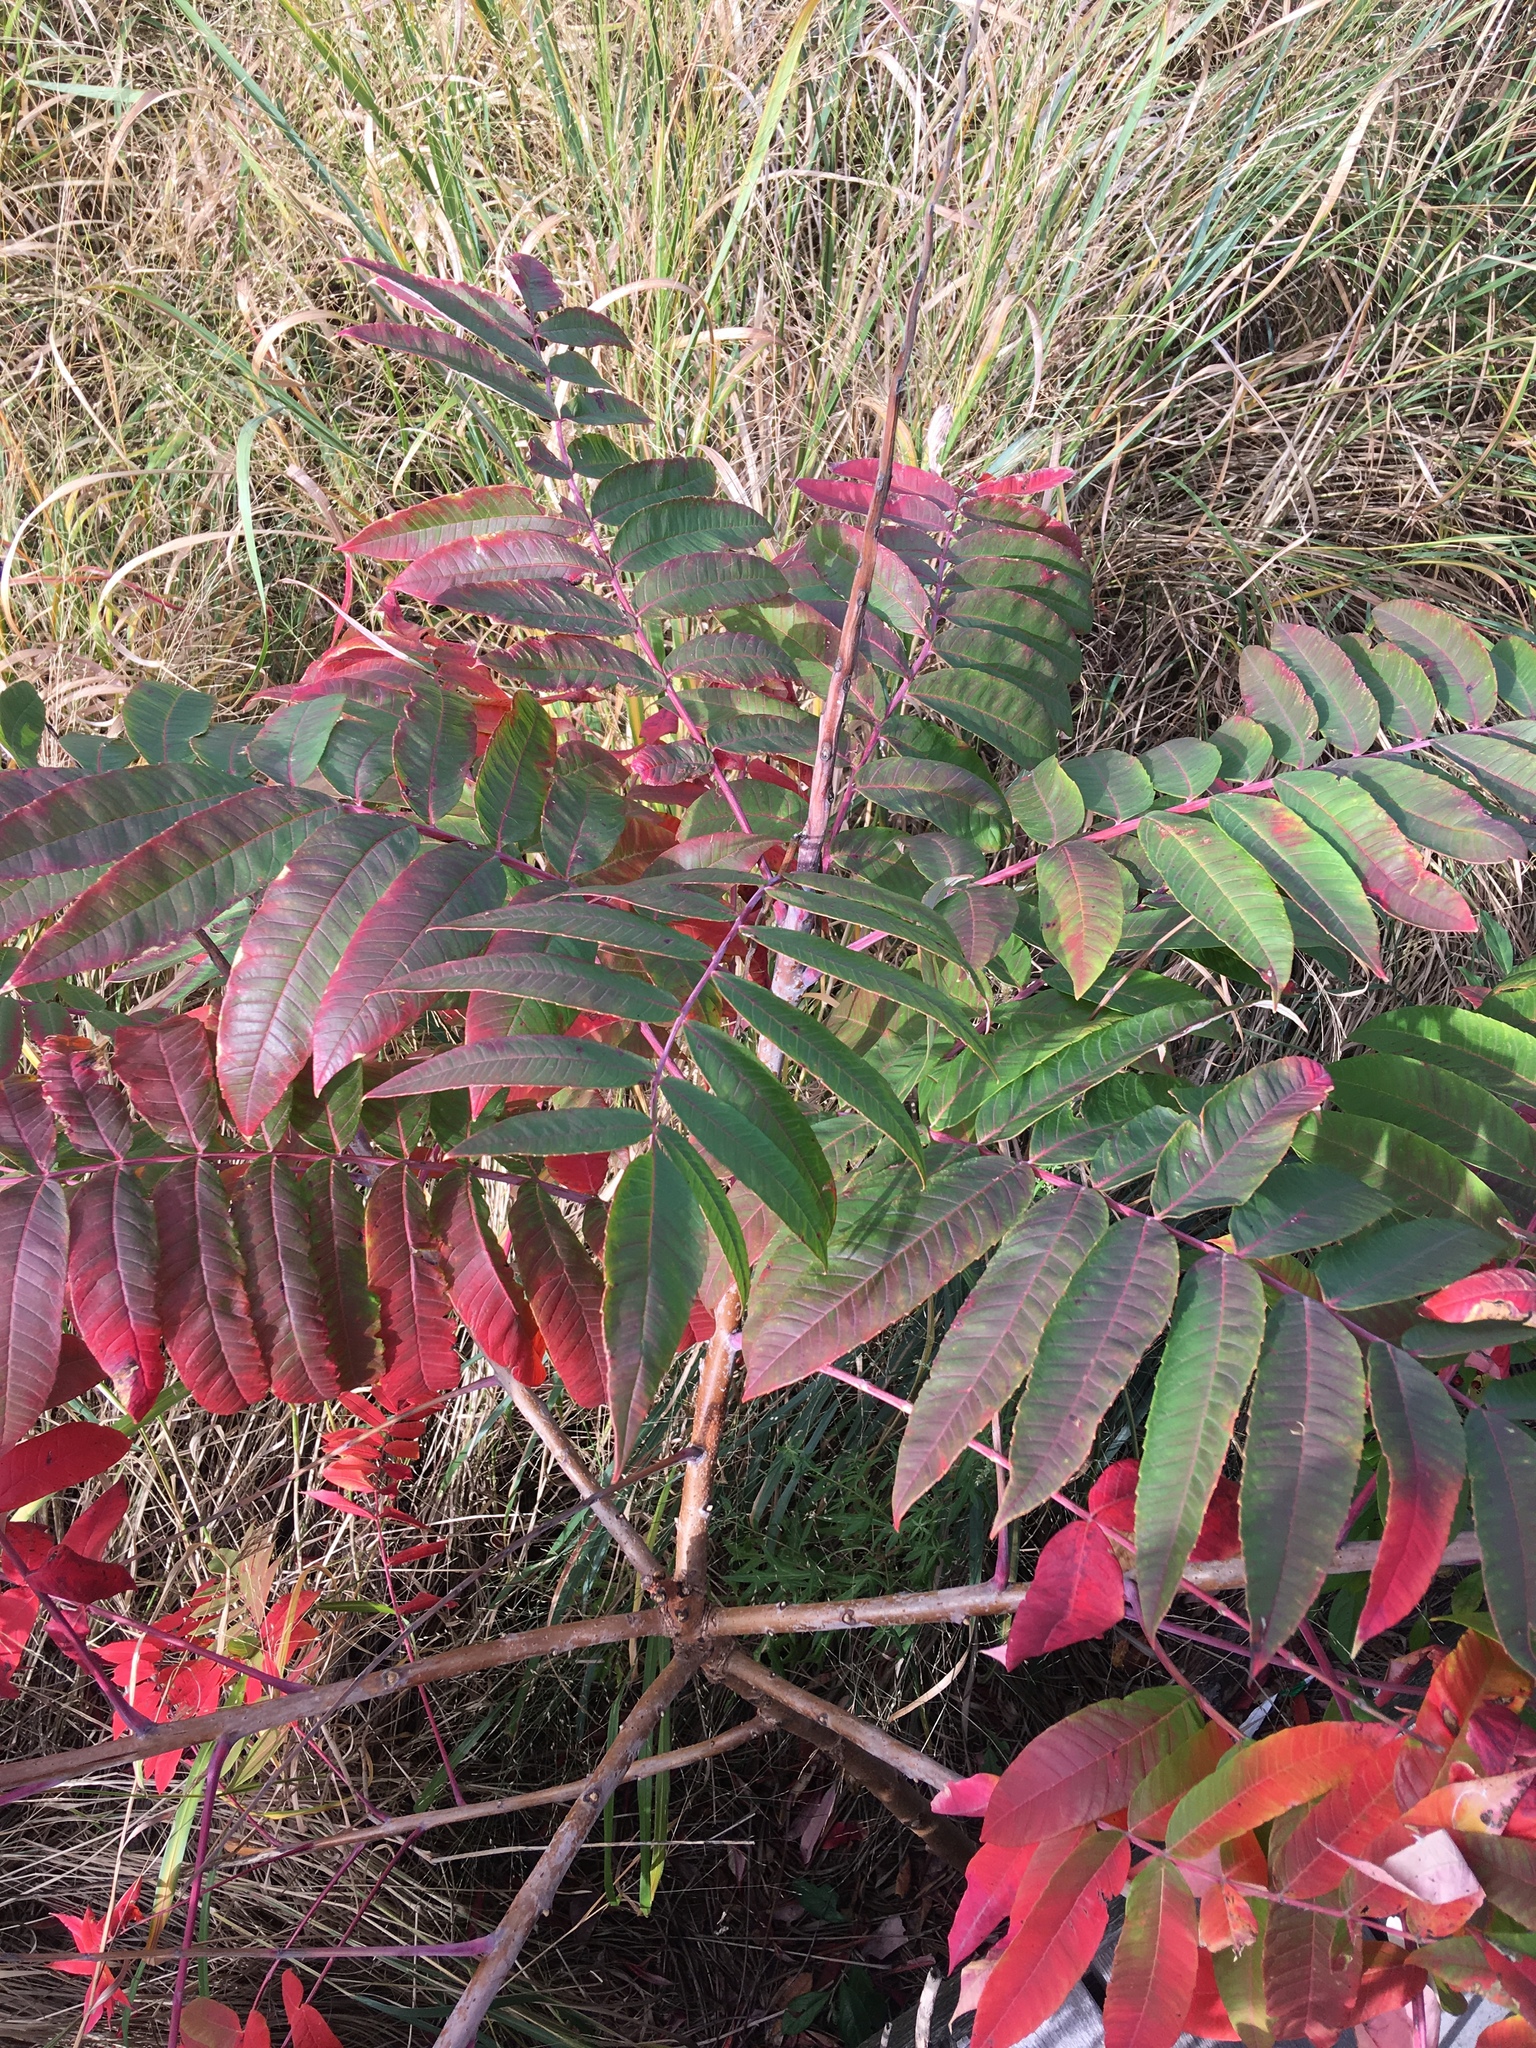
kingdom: Plantae
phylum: Tracheophyta
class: Magnoliopsida
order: Sapindales
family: Anacardiaceae
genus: Rhus
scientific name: Rhus glabra
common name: Scarlet sumac
